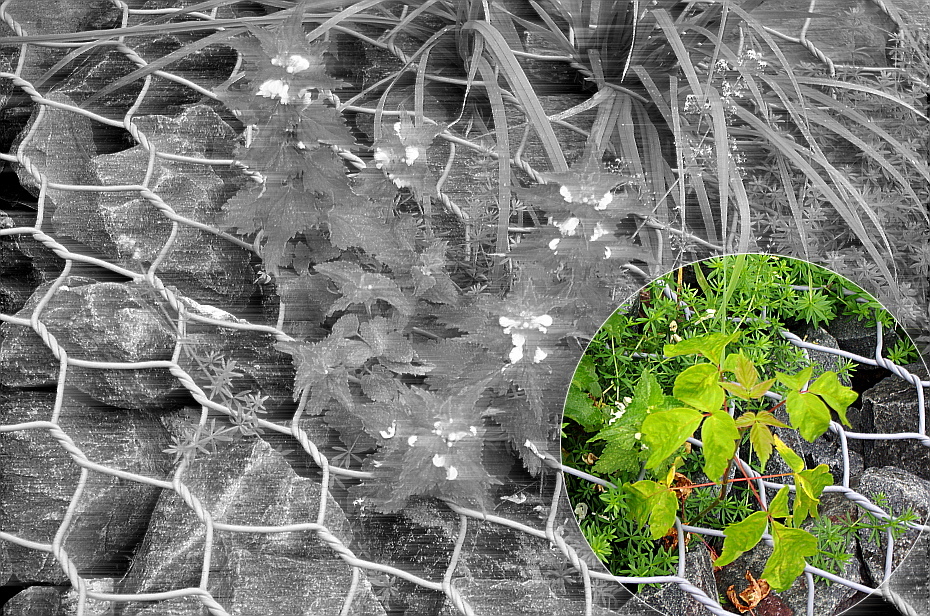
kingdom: Plantae
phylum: Tracheophyta
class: Magnoliopsida
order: Sapindales
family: Sapindaceae
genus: Acer
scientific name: Acer negundo
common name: Ashleaf maple
